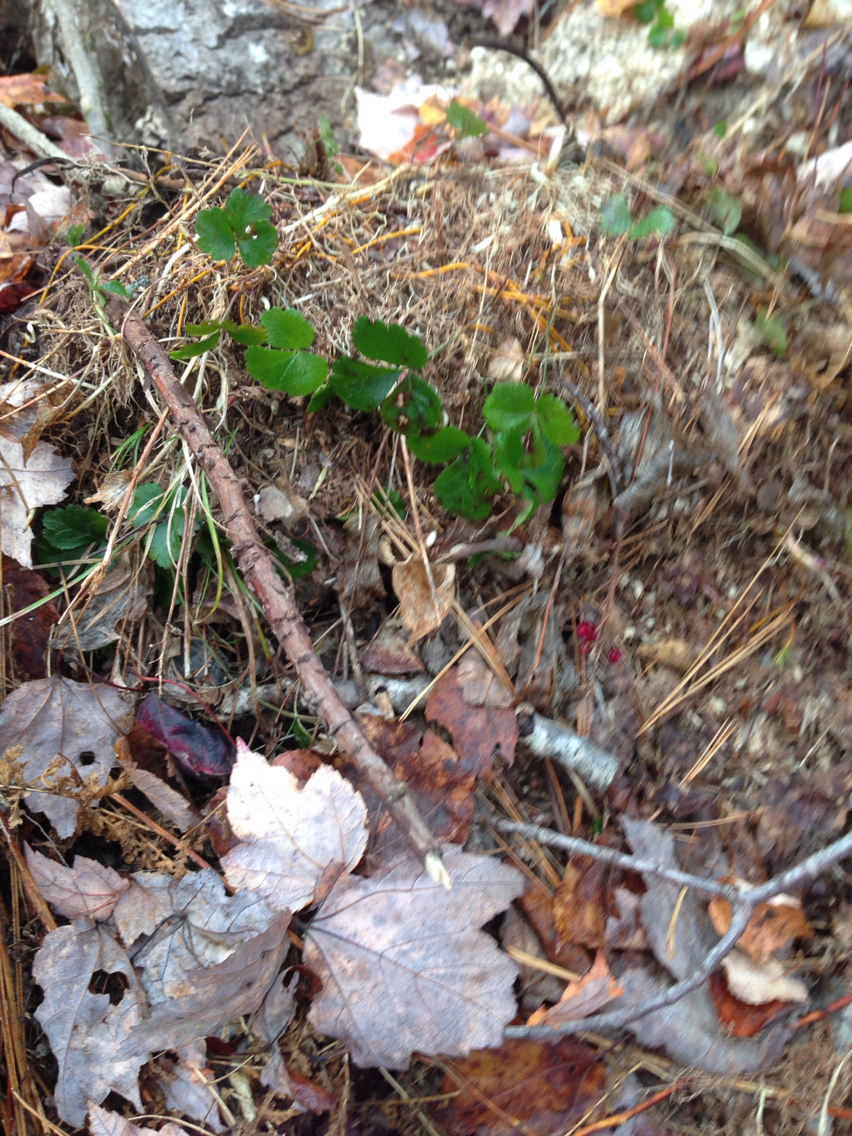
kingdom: Plantae
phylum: Tracheophyta
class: Magnoliopsida
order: Ranunculales
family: Ranunculaceae
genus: Coptis
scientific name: Coptis trifolia
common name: Canker-root
